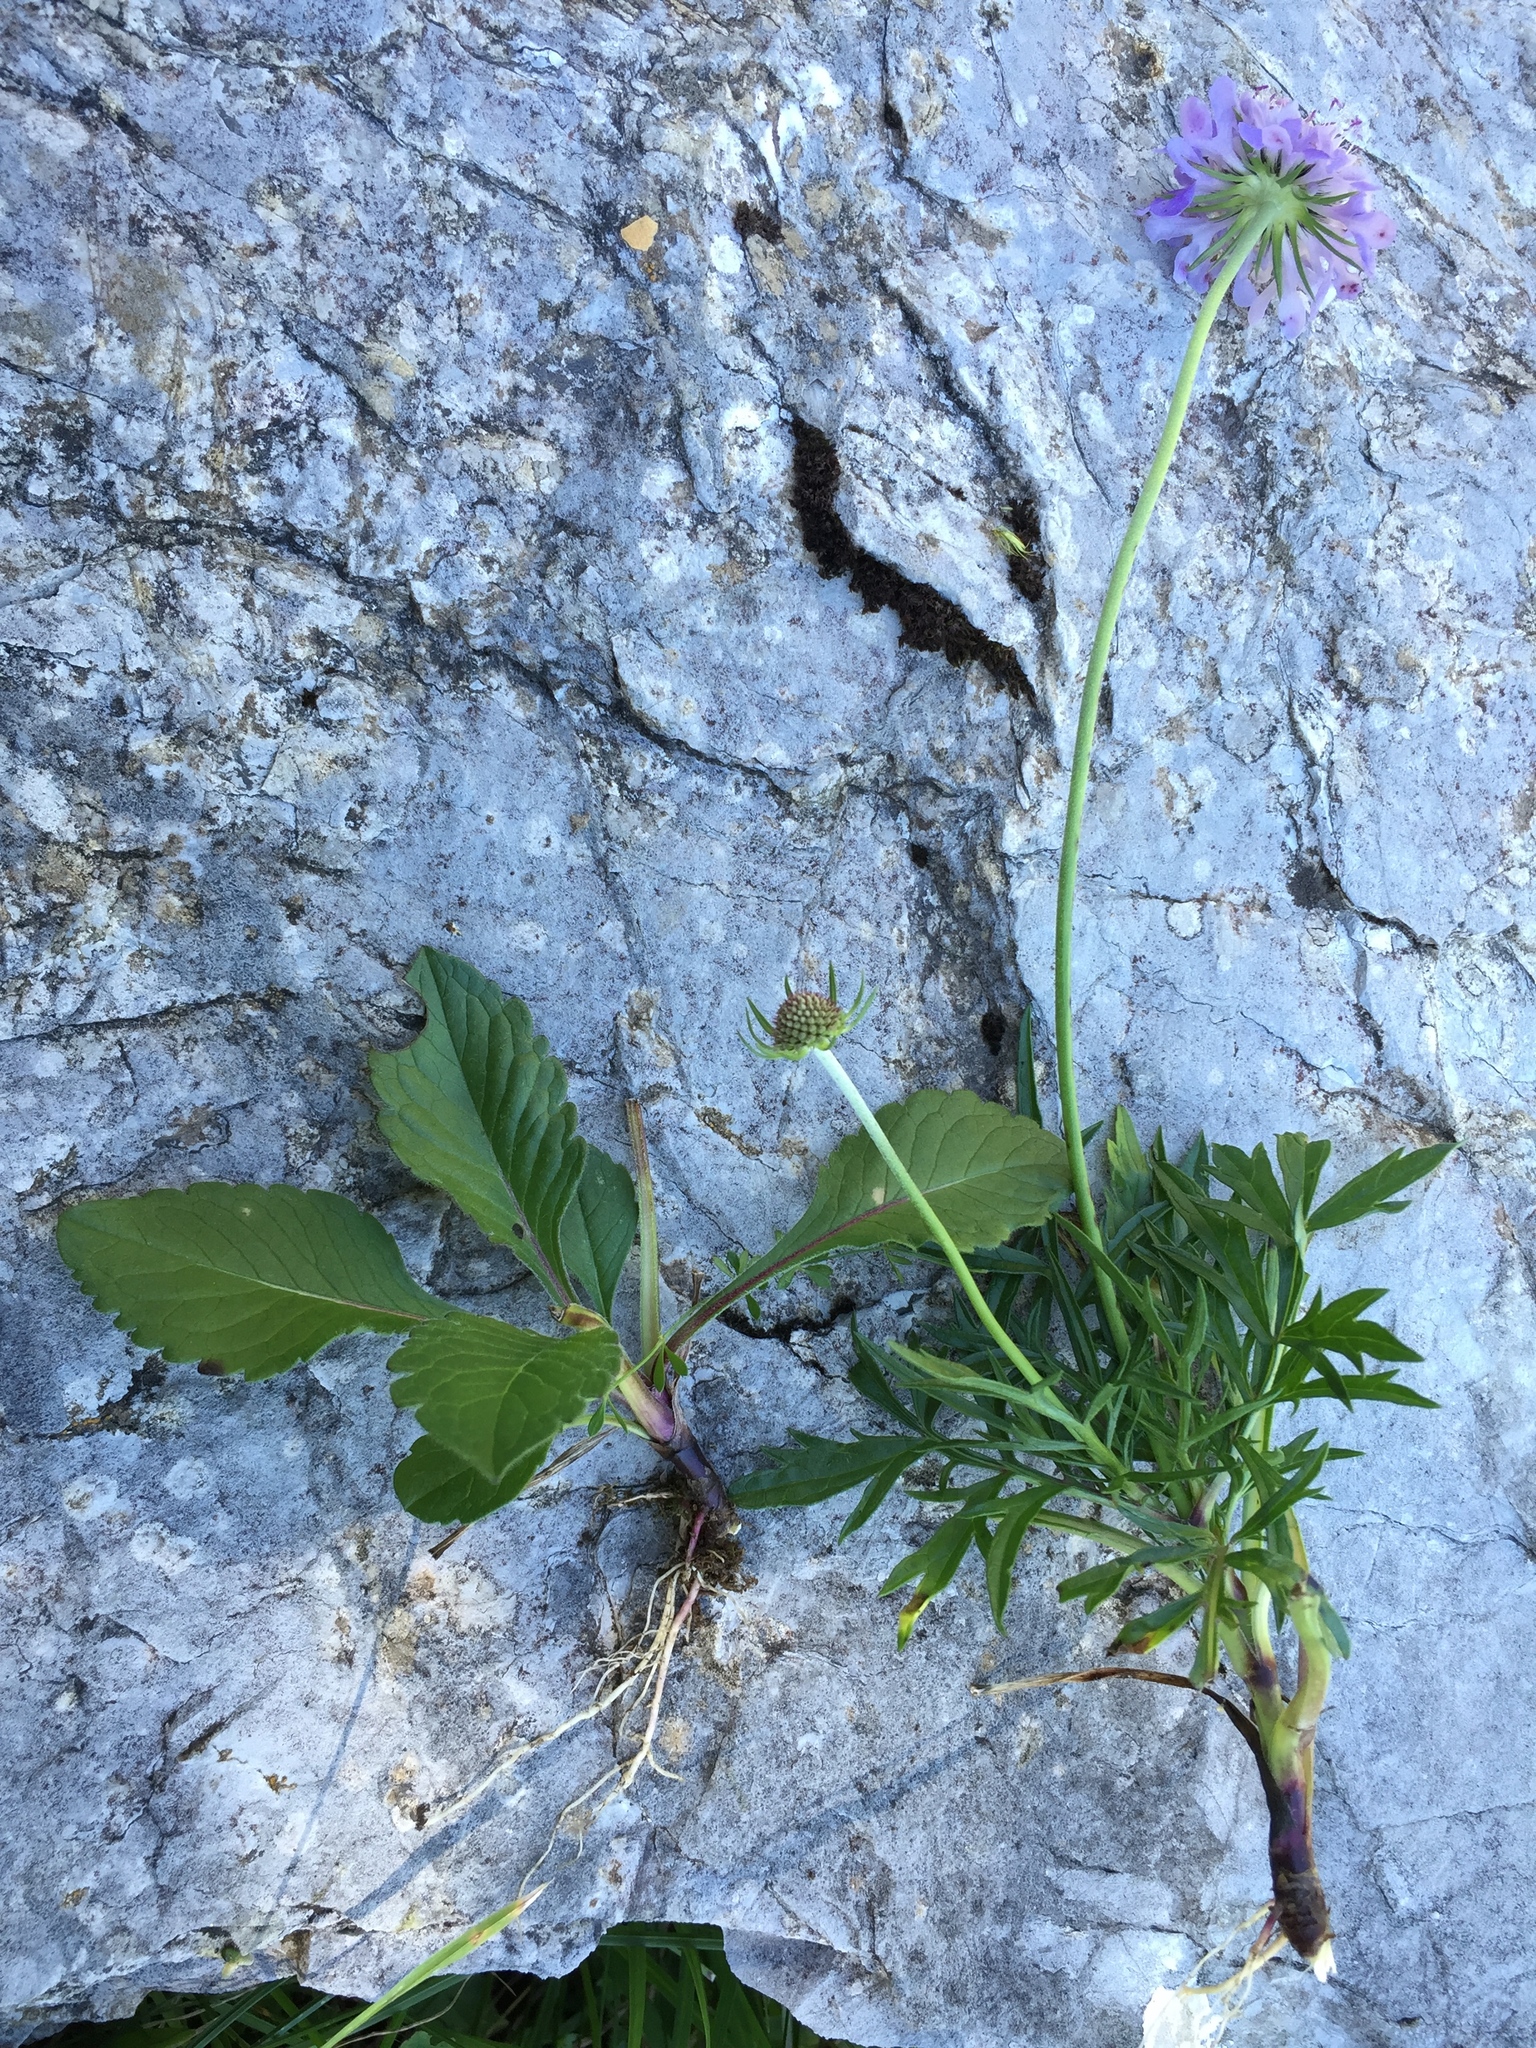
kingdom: Plantae
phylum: Tracheophyta
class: Magnoliopsida
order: Dipsacales
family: Caprifoliaceae
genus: Scabiosa
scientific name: Scabiosa lucida
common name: Shining scabious
